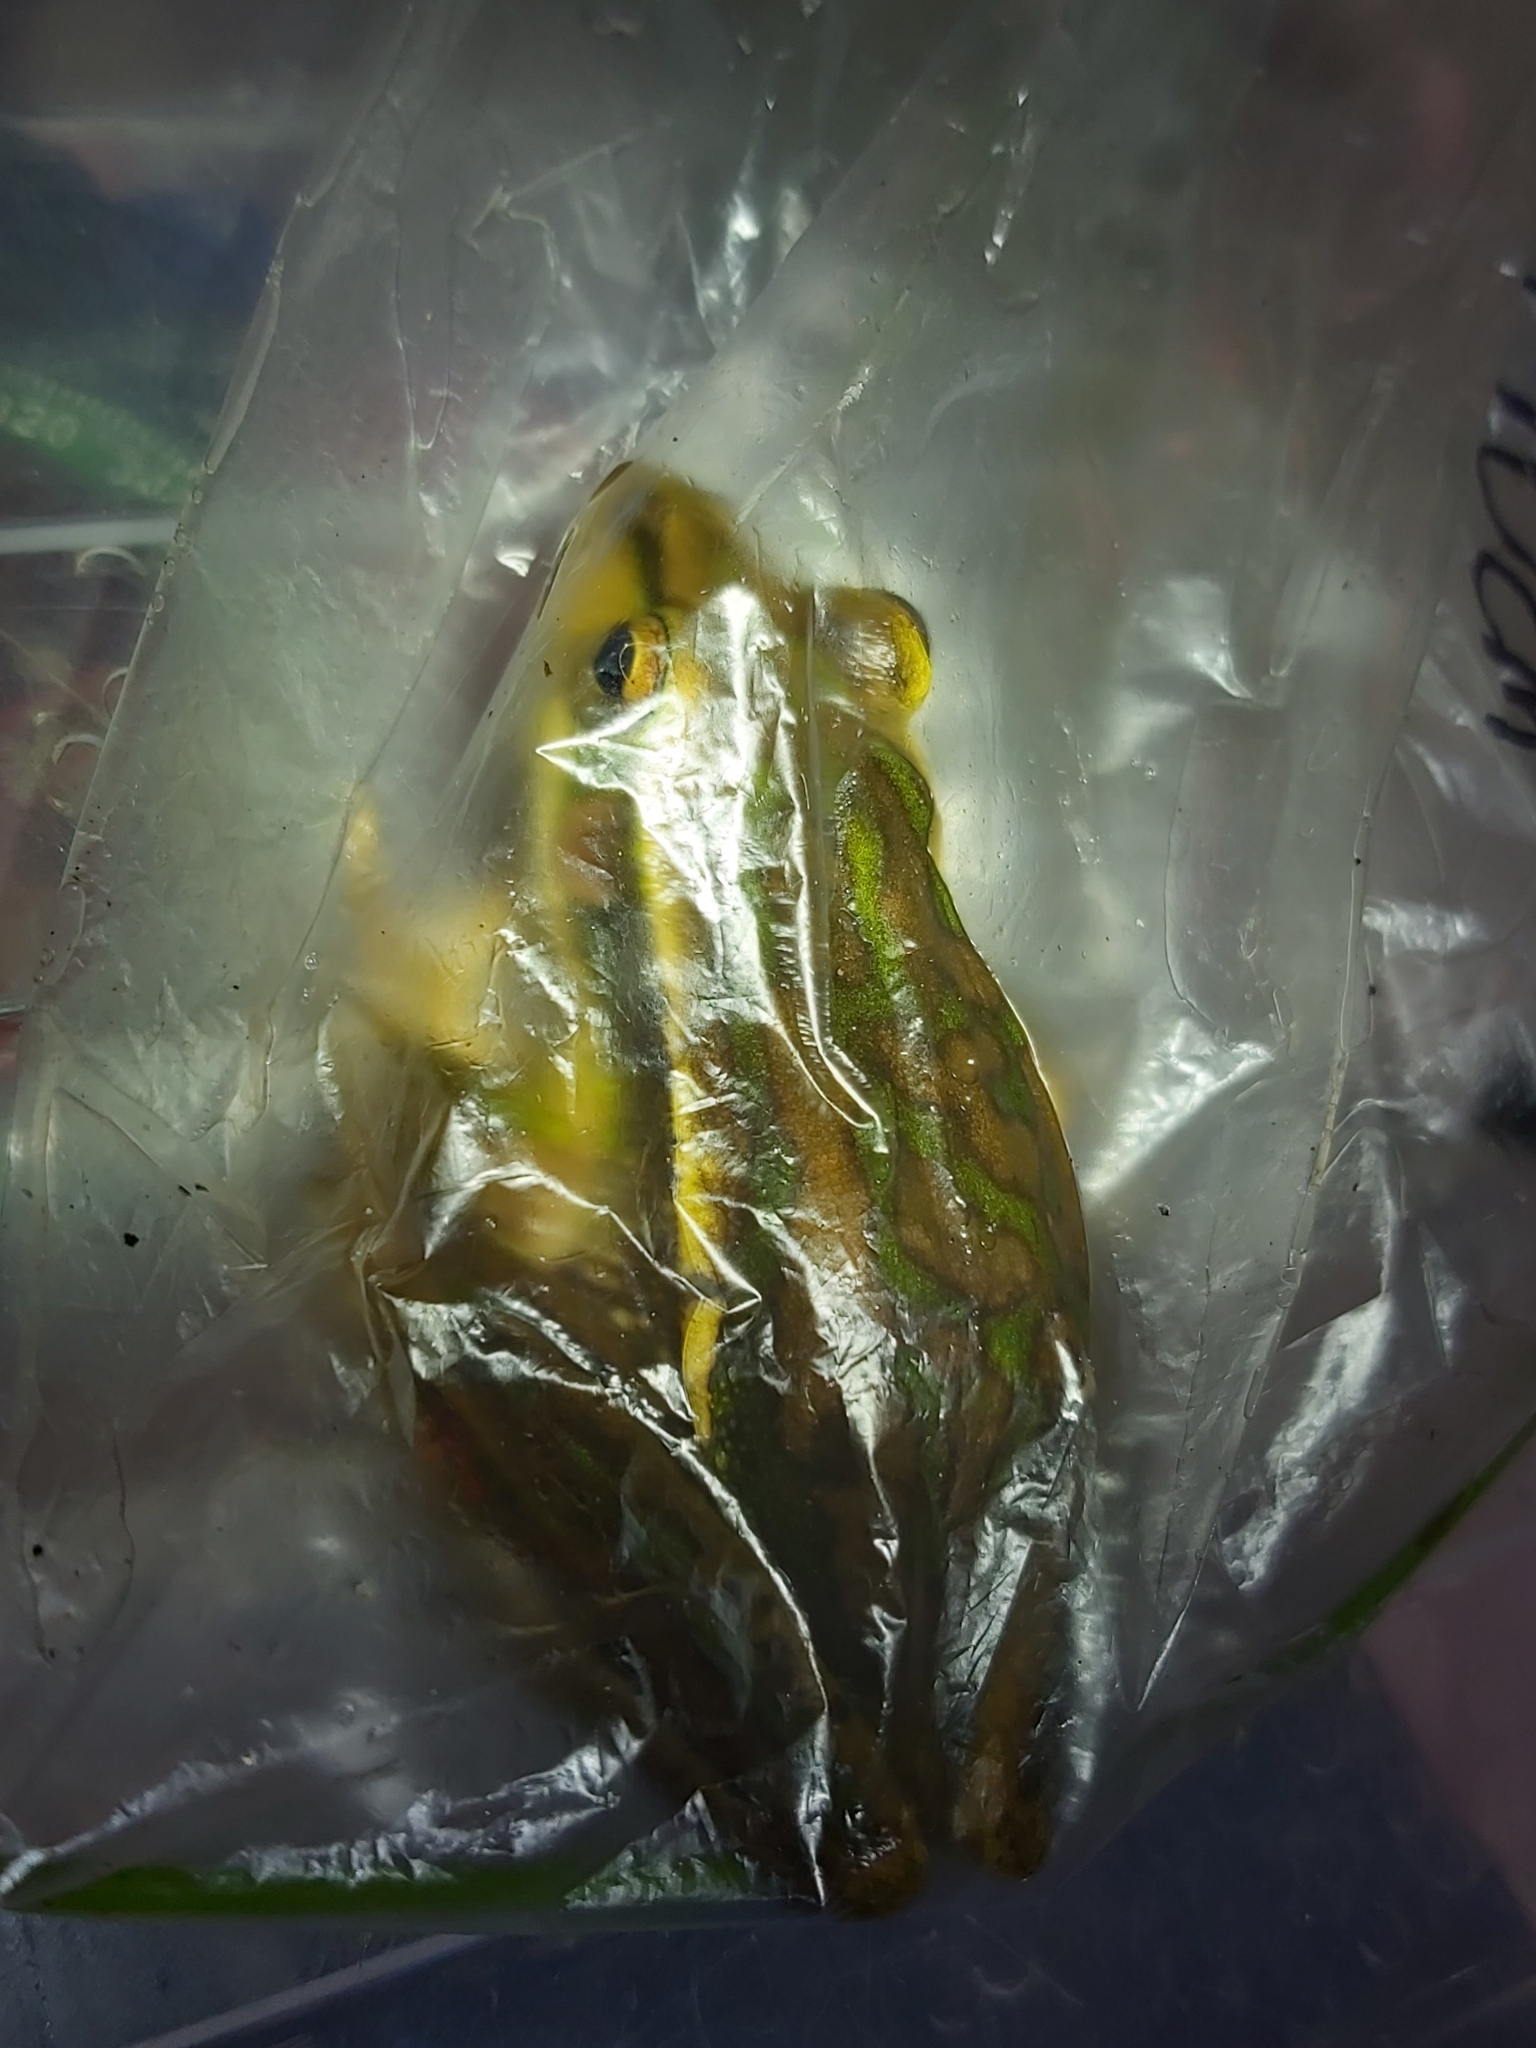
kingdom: Animalia
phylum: Chordata
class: Amphibia
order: Anura
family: Pelodryadidae
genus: Ranoidea
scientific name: Ranoidea aurea
